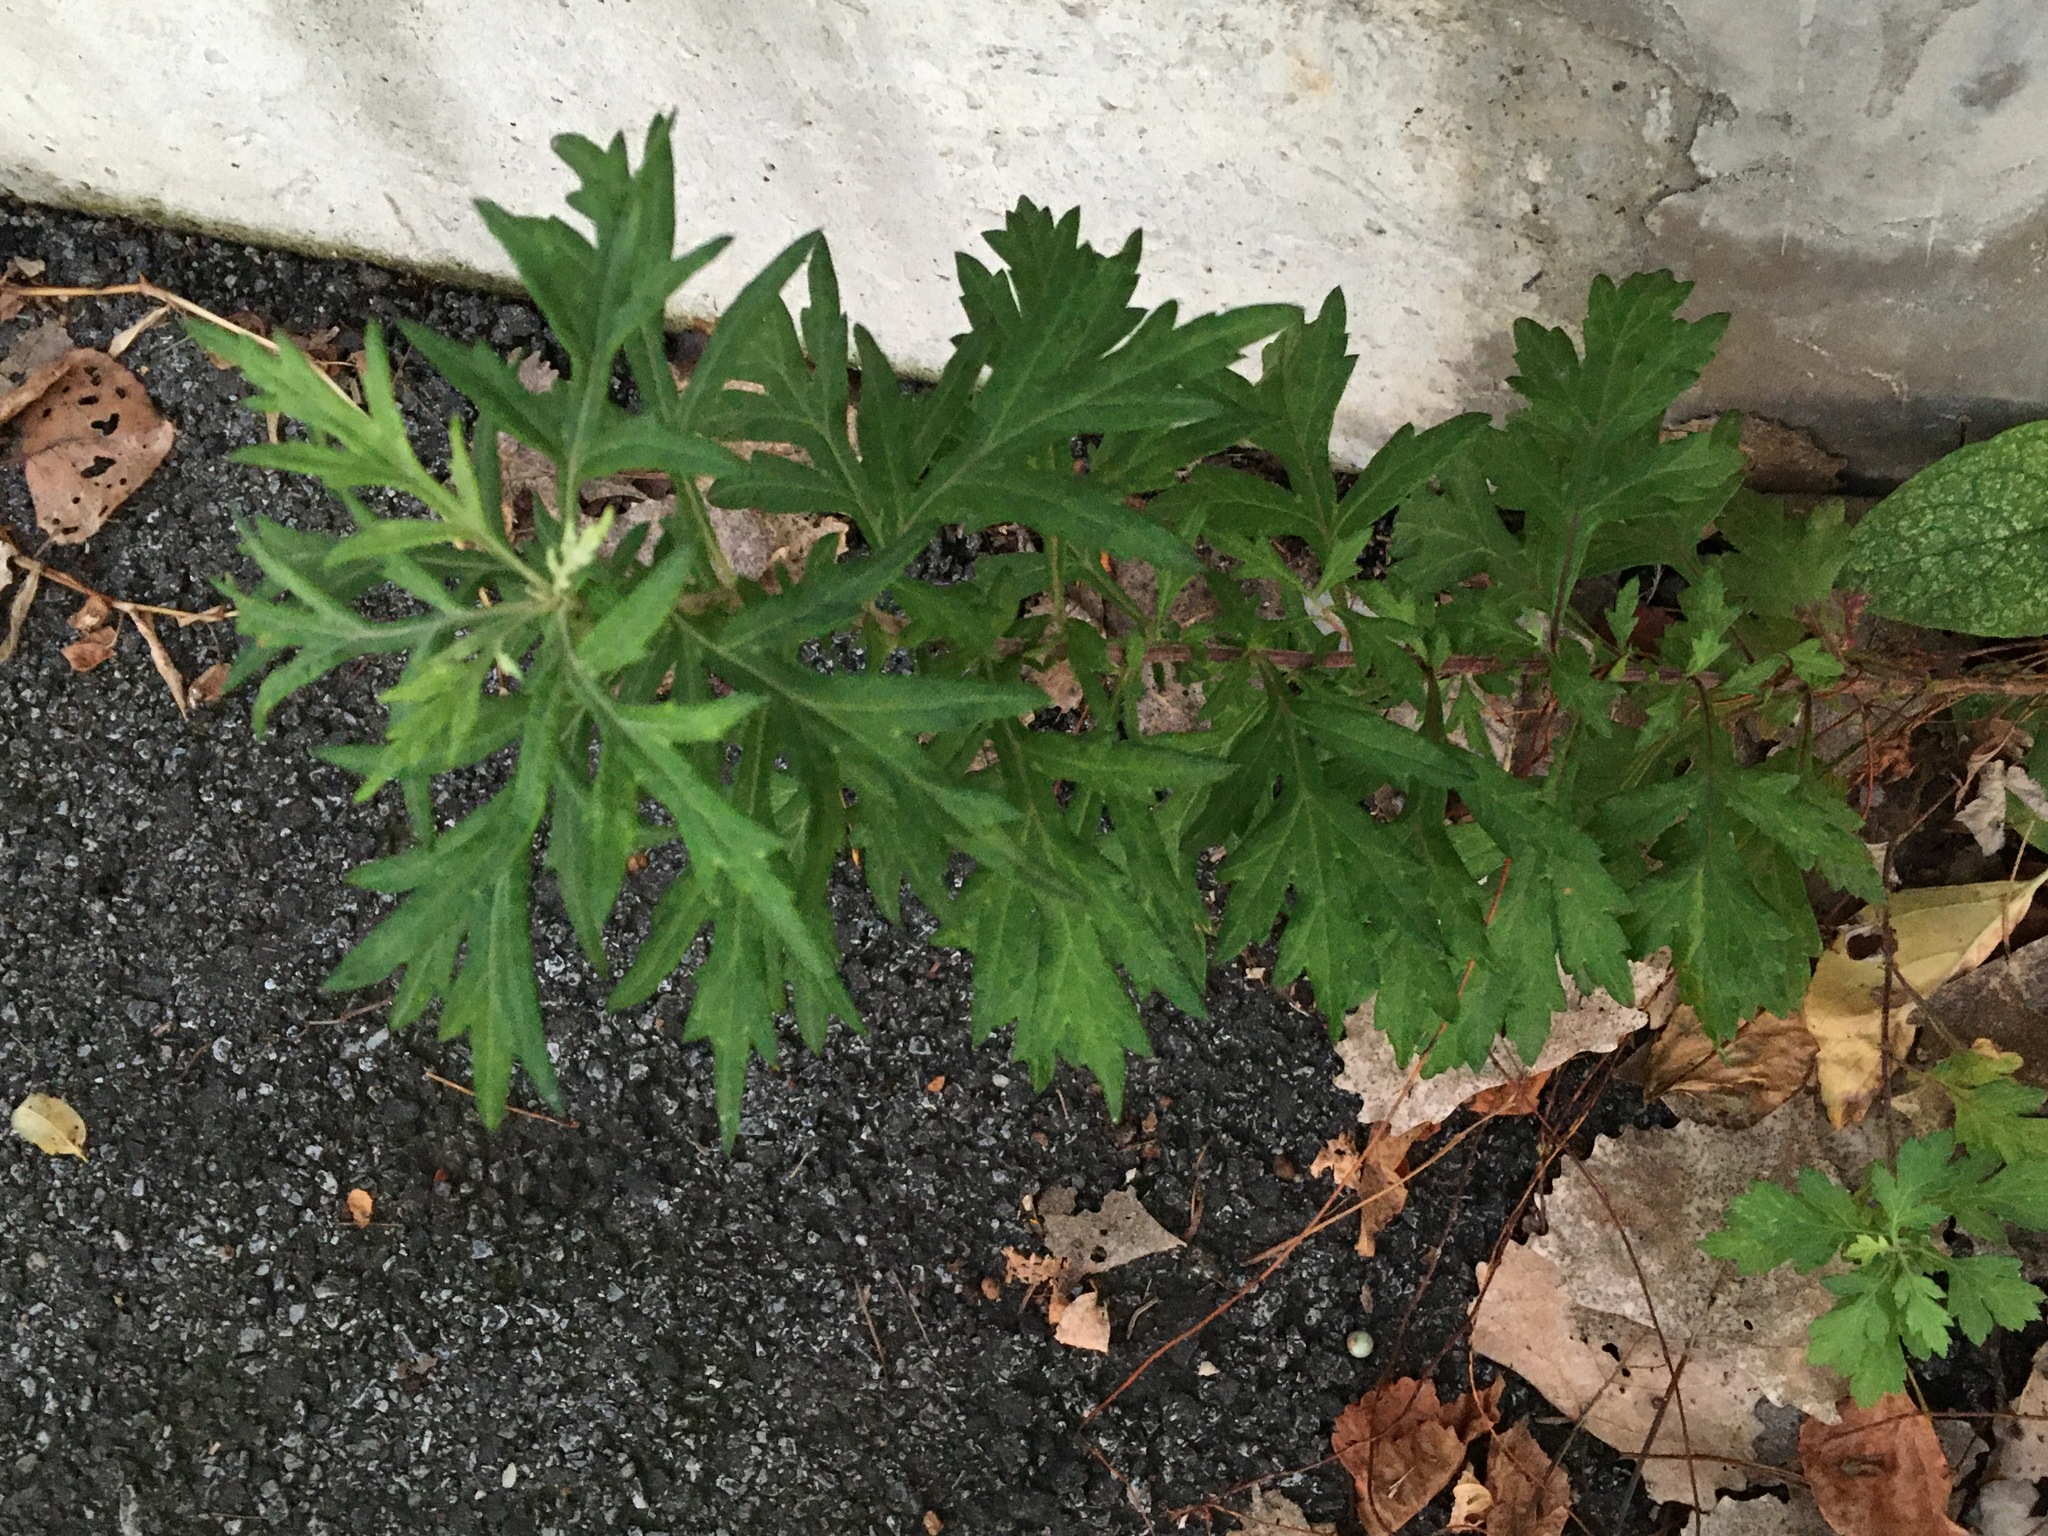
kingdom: Plantae
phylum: Tracheophyta
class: Magnoliopsida
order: Asterales
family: Asteraceae
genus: Artemisia
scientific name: Artemisia vulgaris
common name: Mugwort
